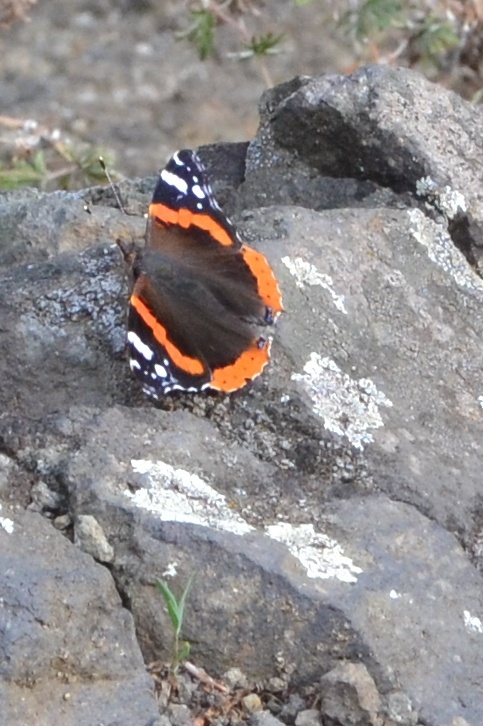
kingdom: Animalia
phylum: Arthropoda
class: Insecta
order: Lepidoptera
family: Nymphalidae
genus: Vanessa
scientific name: Vanessa atalanta
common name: Red admiral
